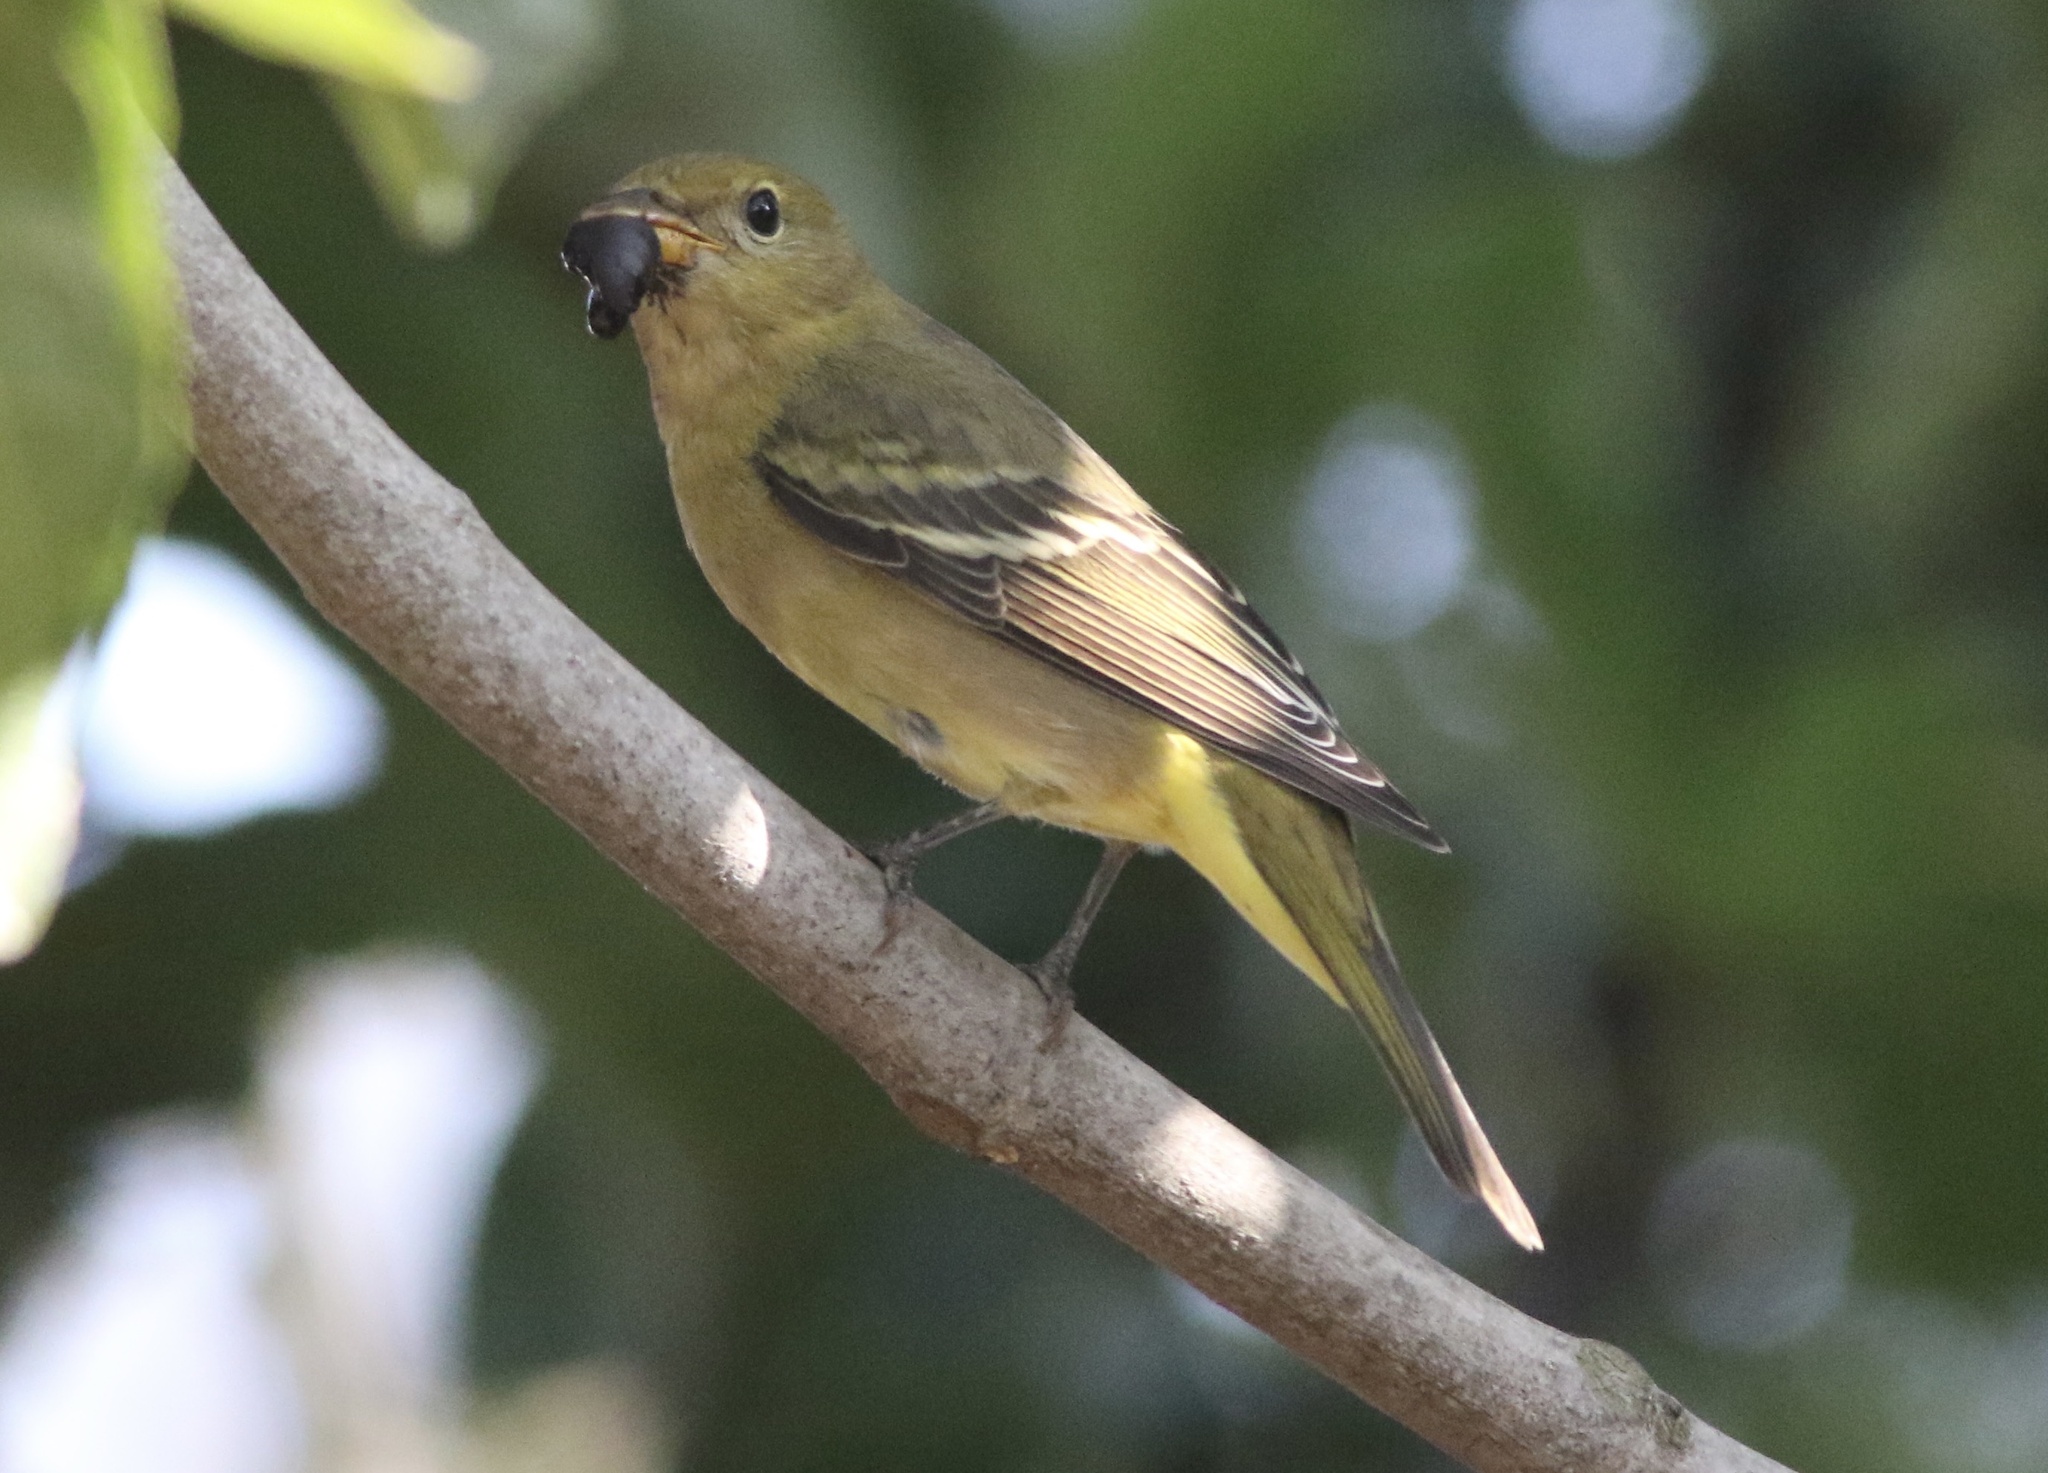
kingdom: Animalia
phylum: Chordata
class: Aves
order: Passeriformes
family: Cardinalidae
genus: Piranga
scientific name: Piranga ludoviciana
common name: Western tanager
